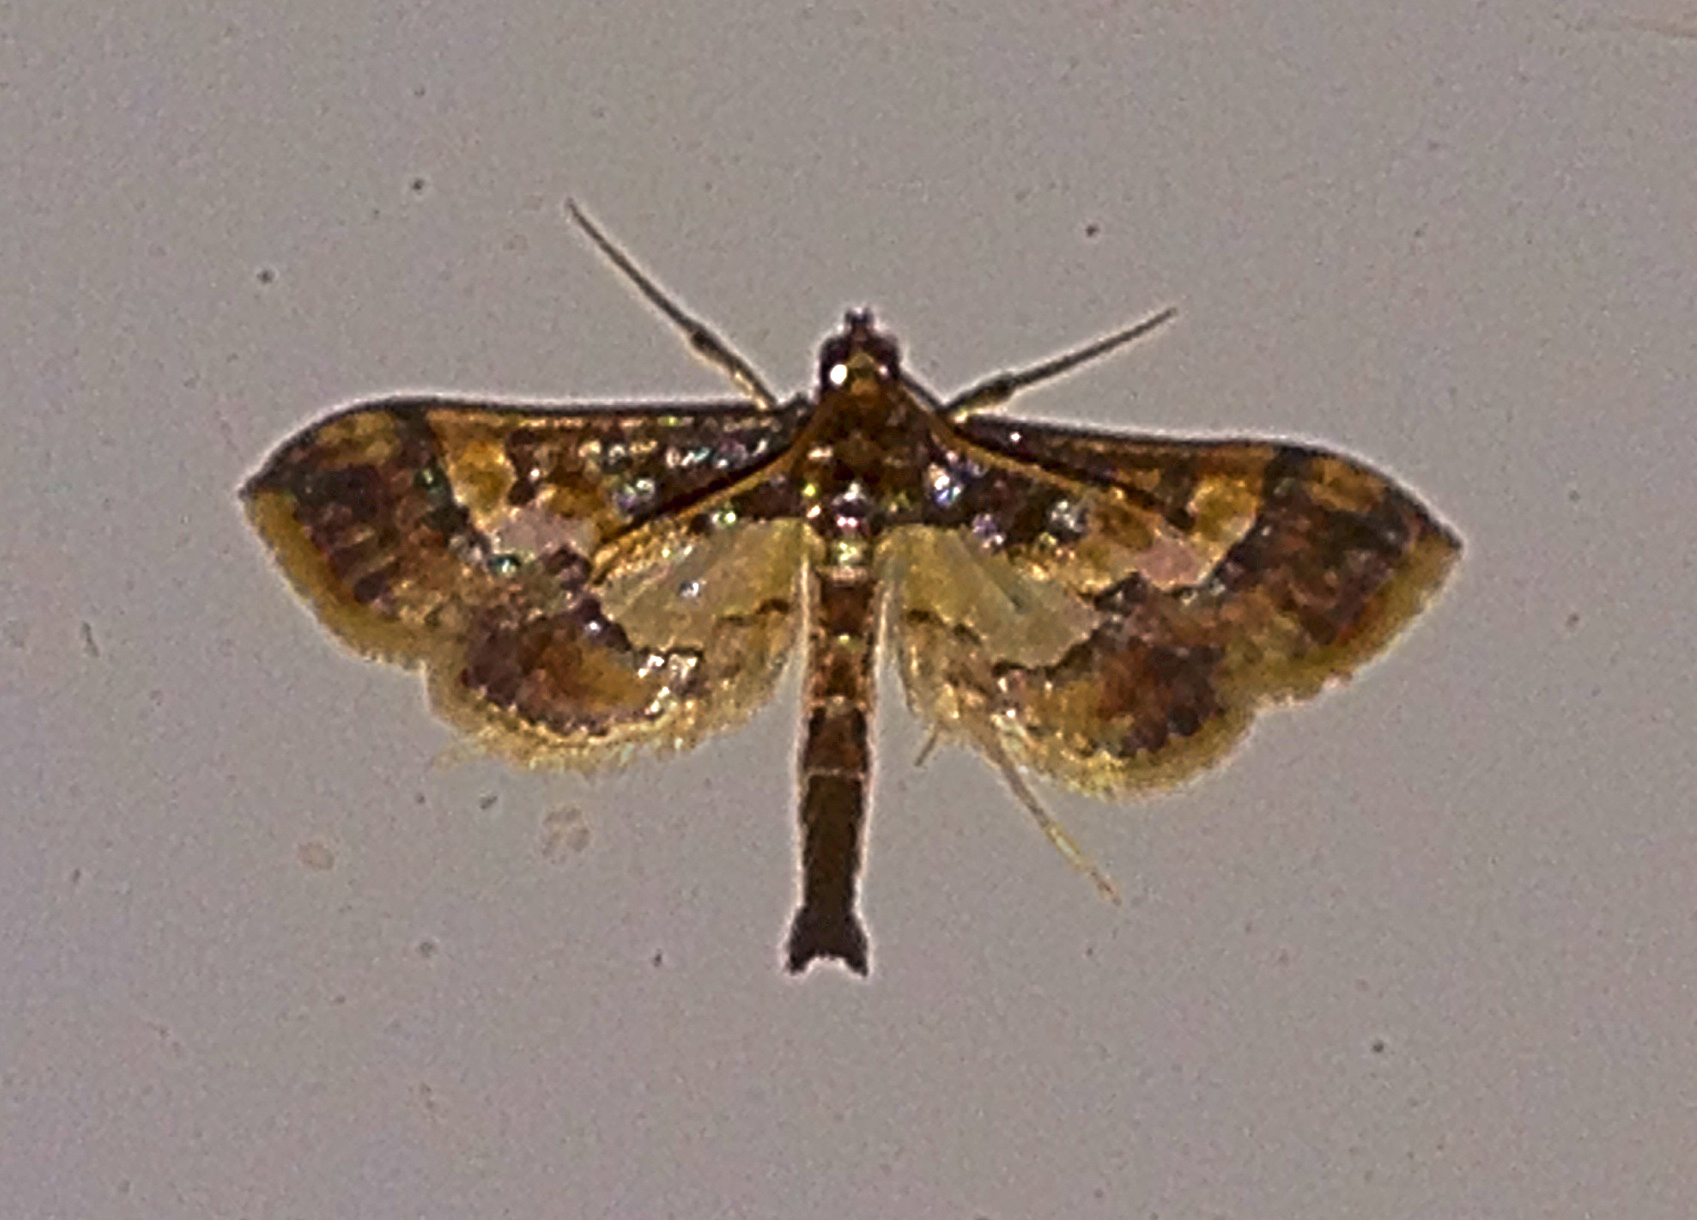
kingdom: Animalia
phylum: Arthropoda
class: Insecta
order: Lepidoptera
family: Crambidae
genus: Hydriris
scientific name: Hydriris ornatalis
